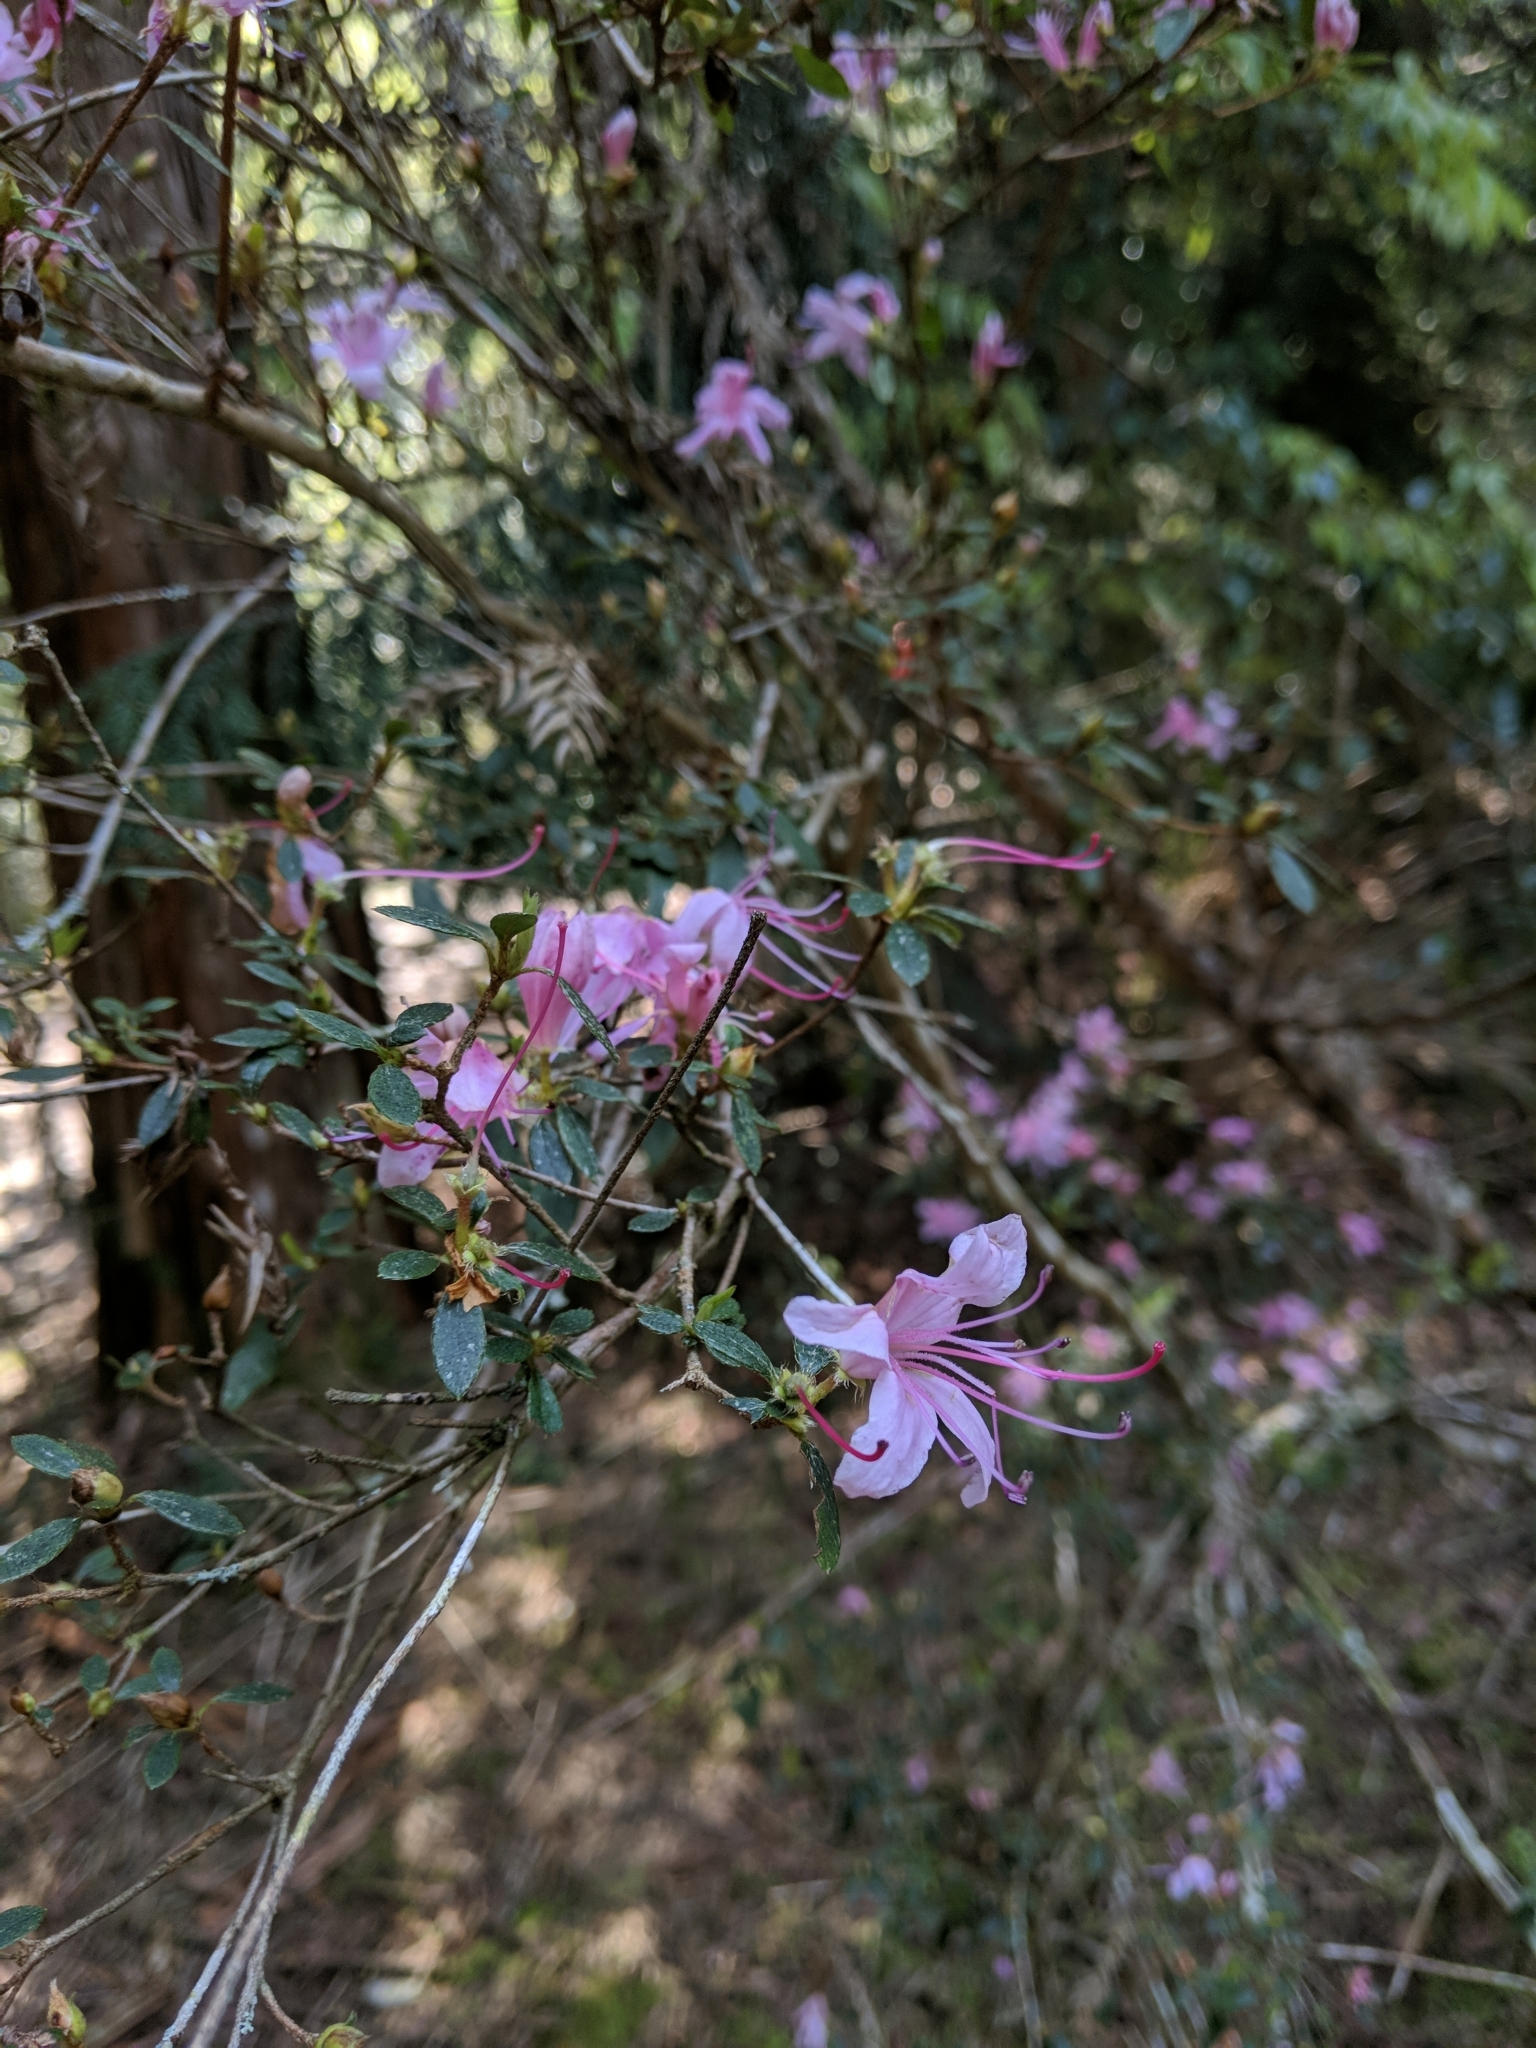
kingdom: Plantae
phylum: Tracheophyta
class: Magnoliopsida
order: Ericales
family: Ericaceae
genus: Rhododendron
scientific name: Rhododendron noriakianum
